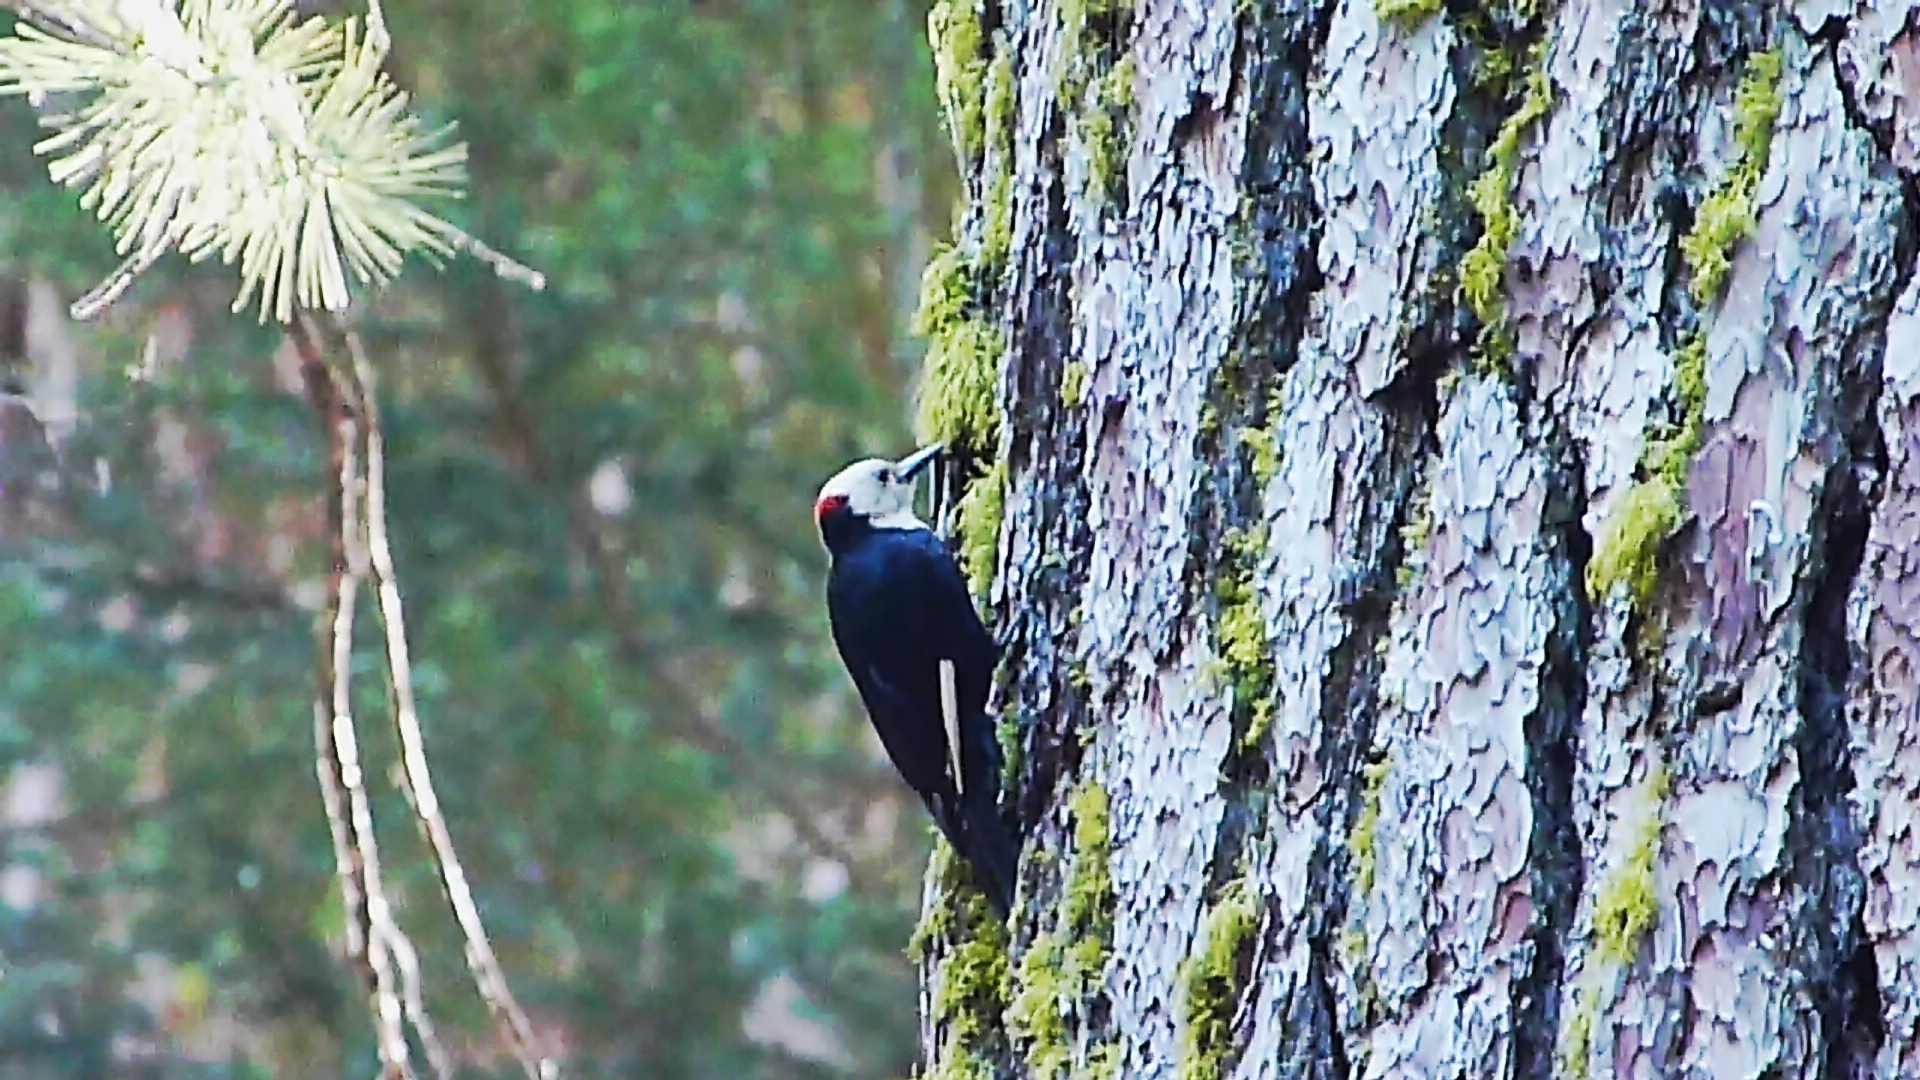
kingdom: Animalia
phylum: Chordata
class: Aves
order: Piciformes
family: Picidae
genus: Leuconotopicus
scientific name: Leuconotopicus albolarvatus
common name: White-headed woodpecker
